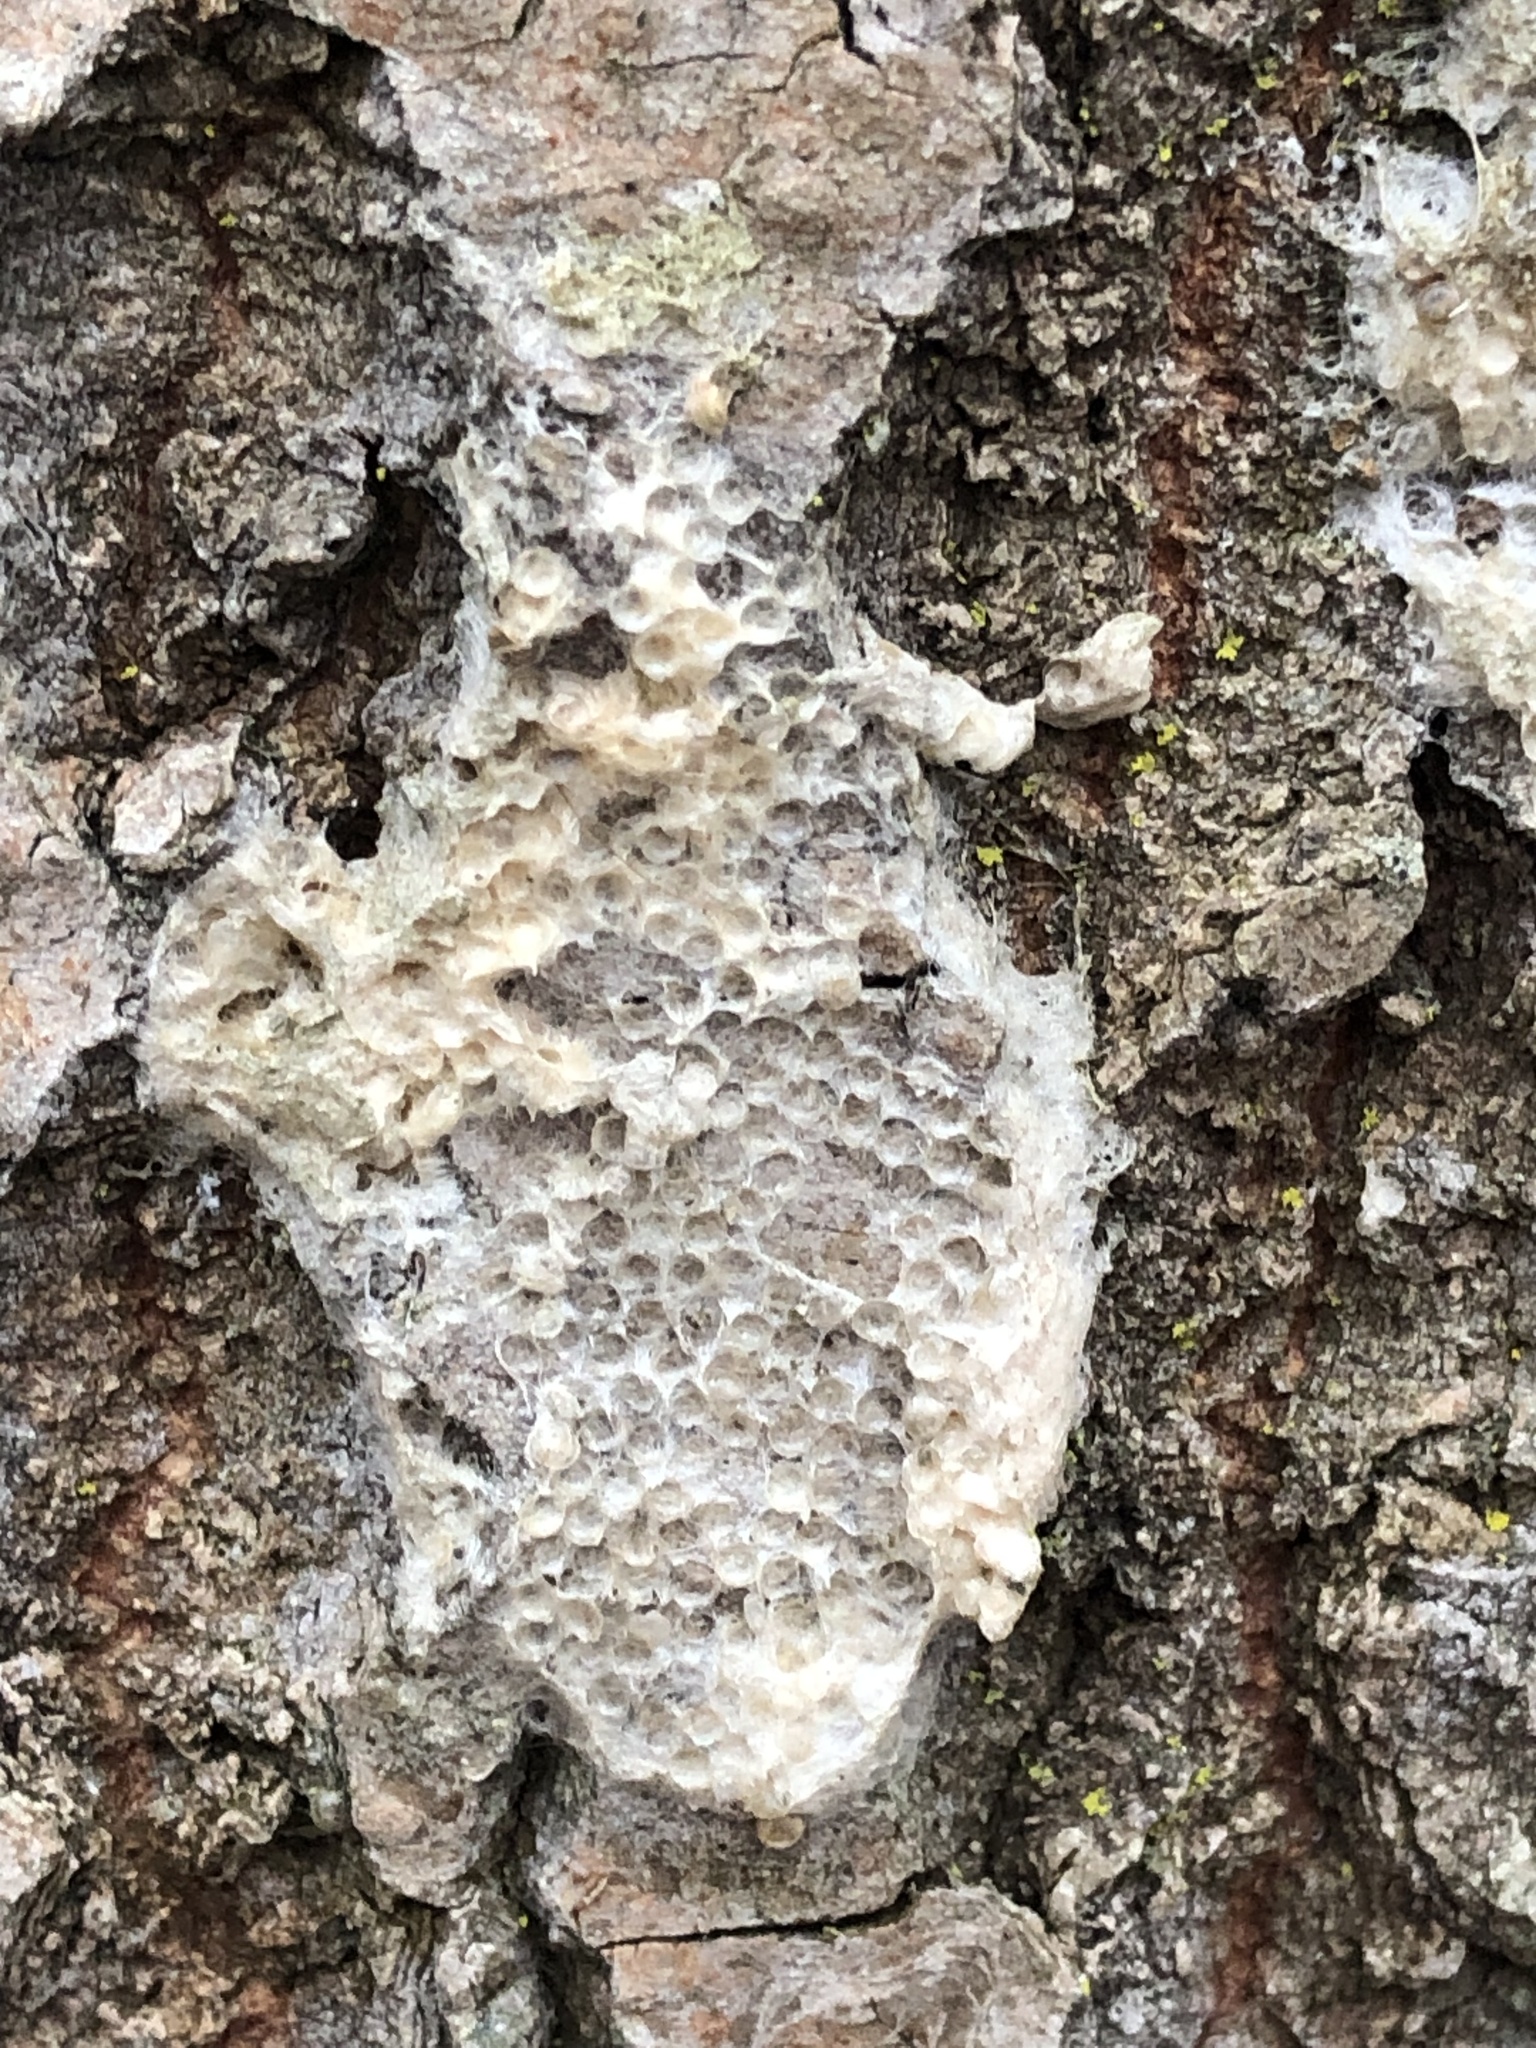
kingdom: Animalia
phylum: Arthropoda
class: Insecta
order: Lepidoptera
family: Erebidae
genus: Lymantria
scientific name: Lymantria dispar
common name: Gypsy moth
